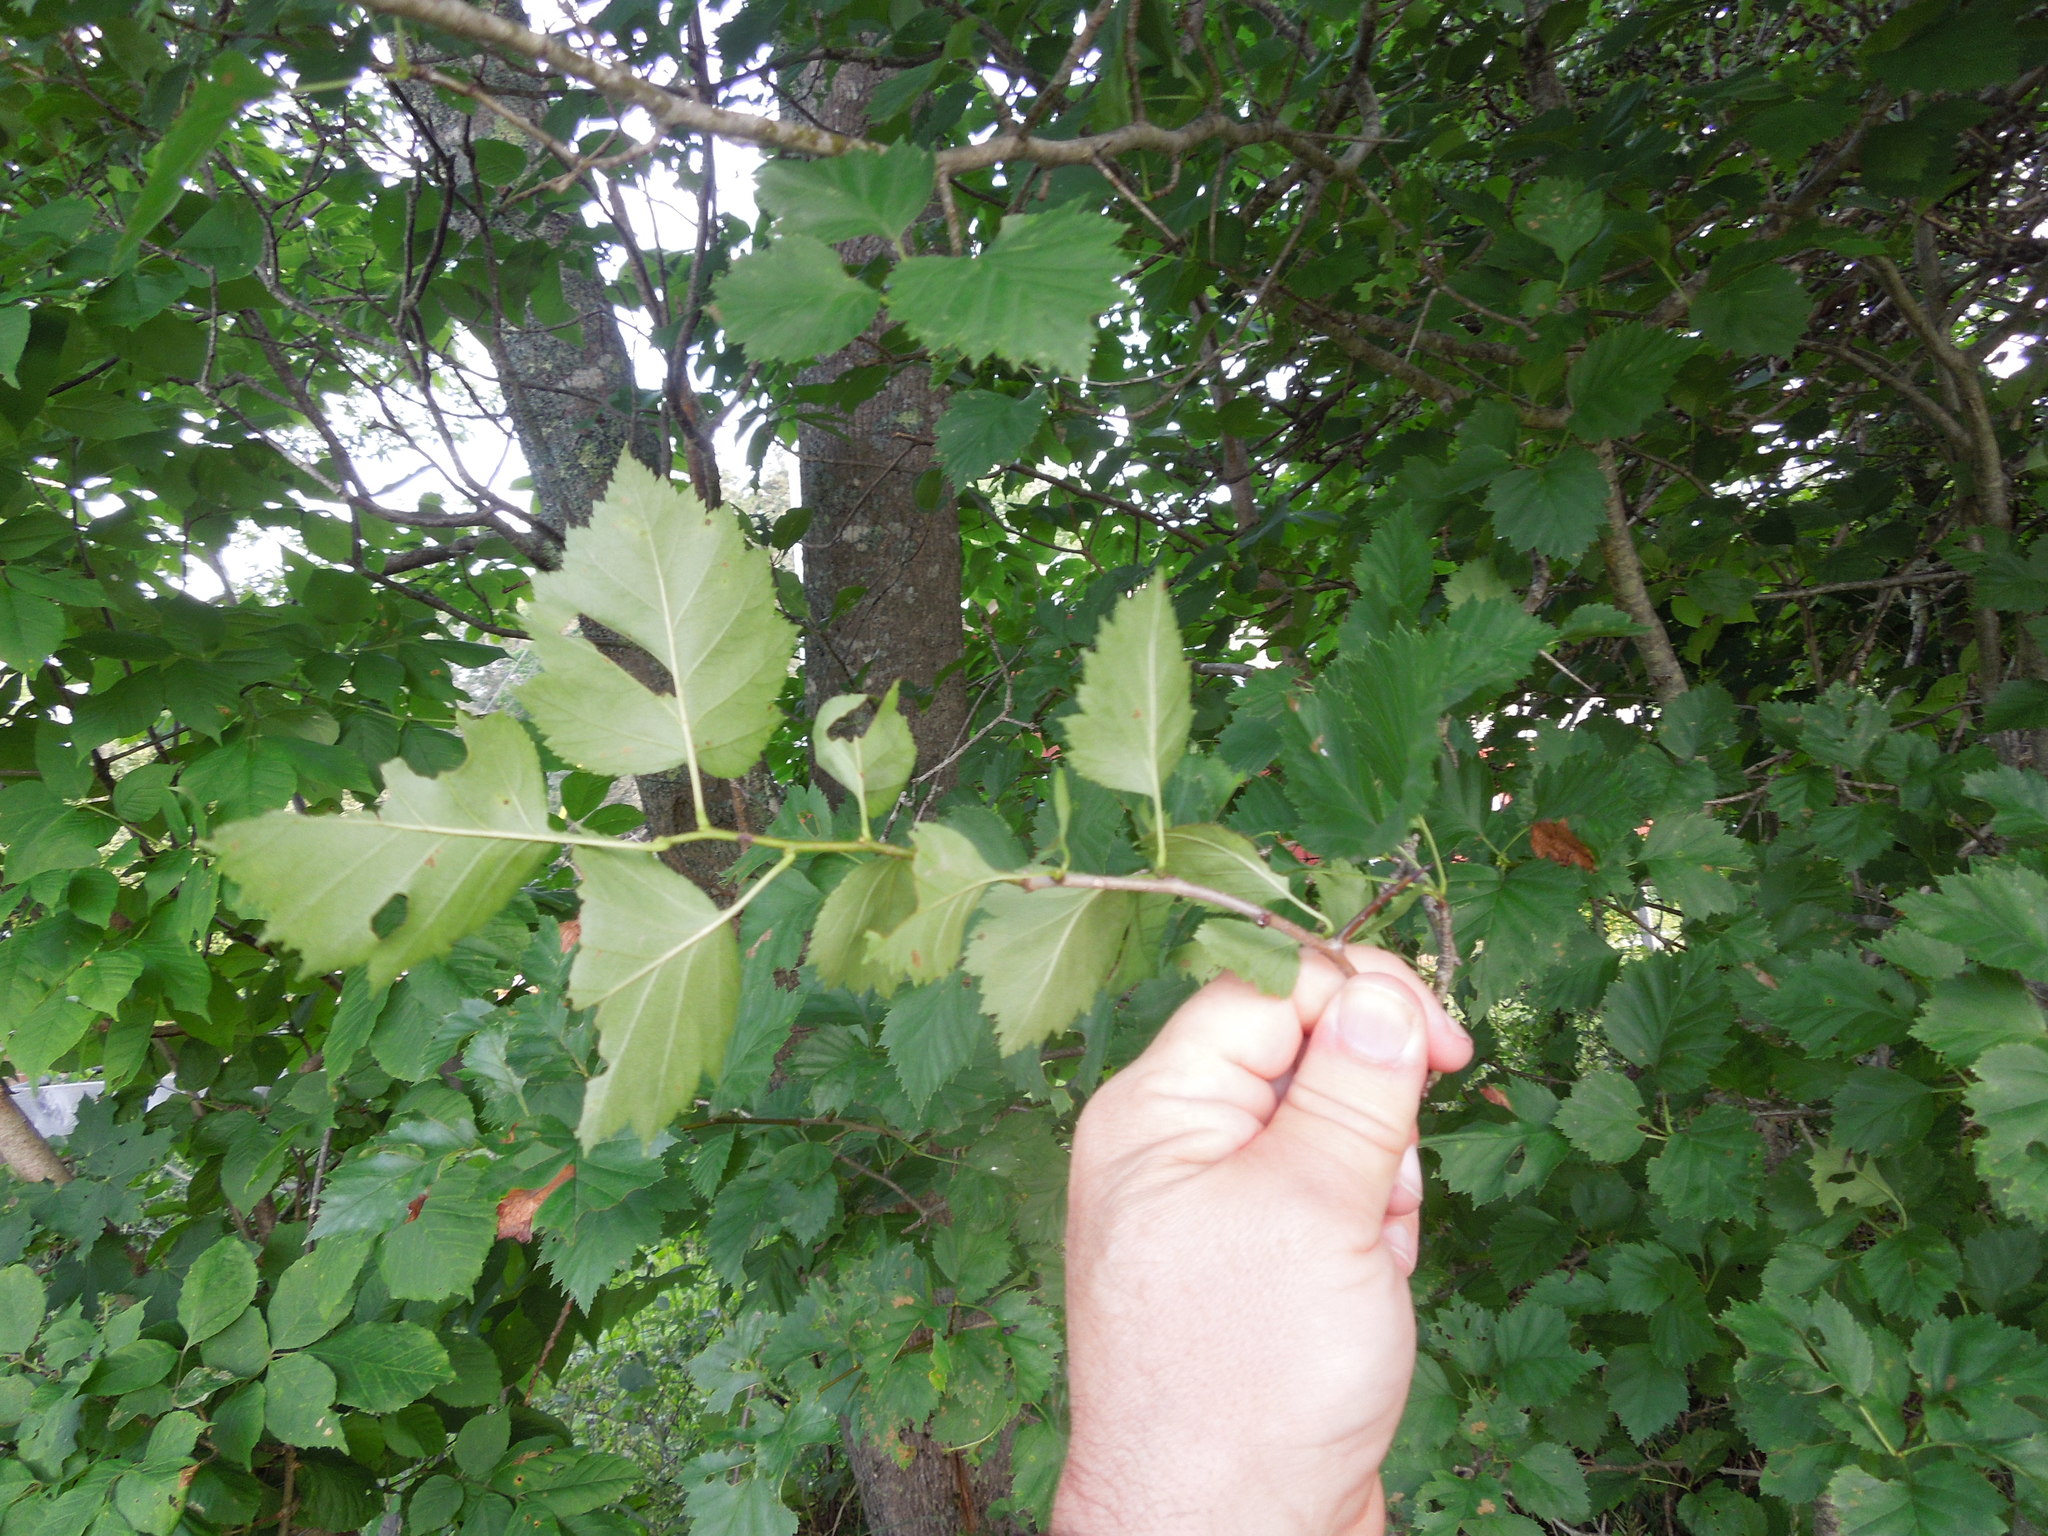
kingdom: Plantae
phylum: Tracheophyta
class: Magnoliopsida
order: Rosales
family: Rosaceae
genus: Crataegus
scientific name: Crataegus
